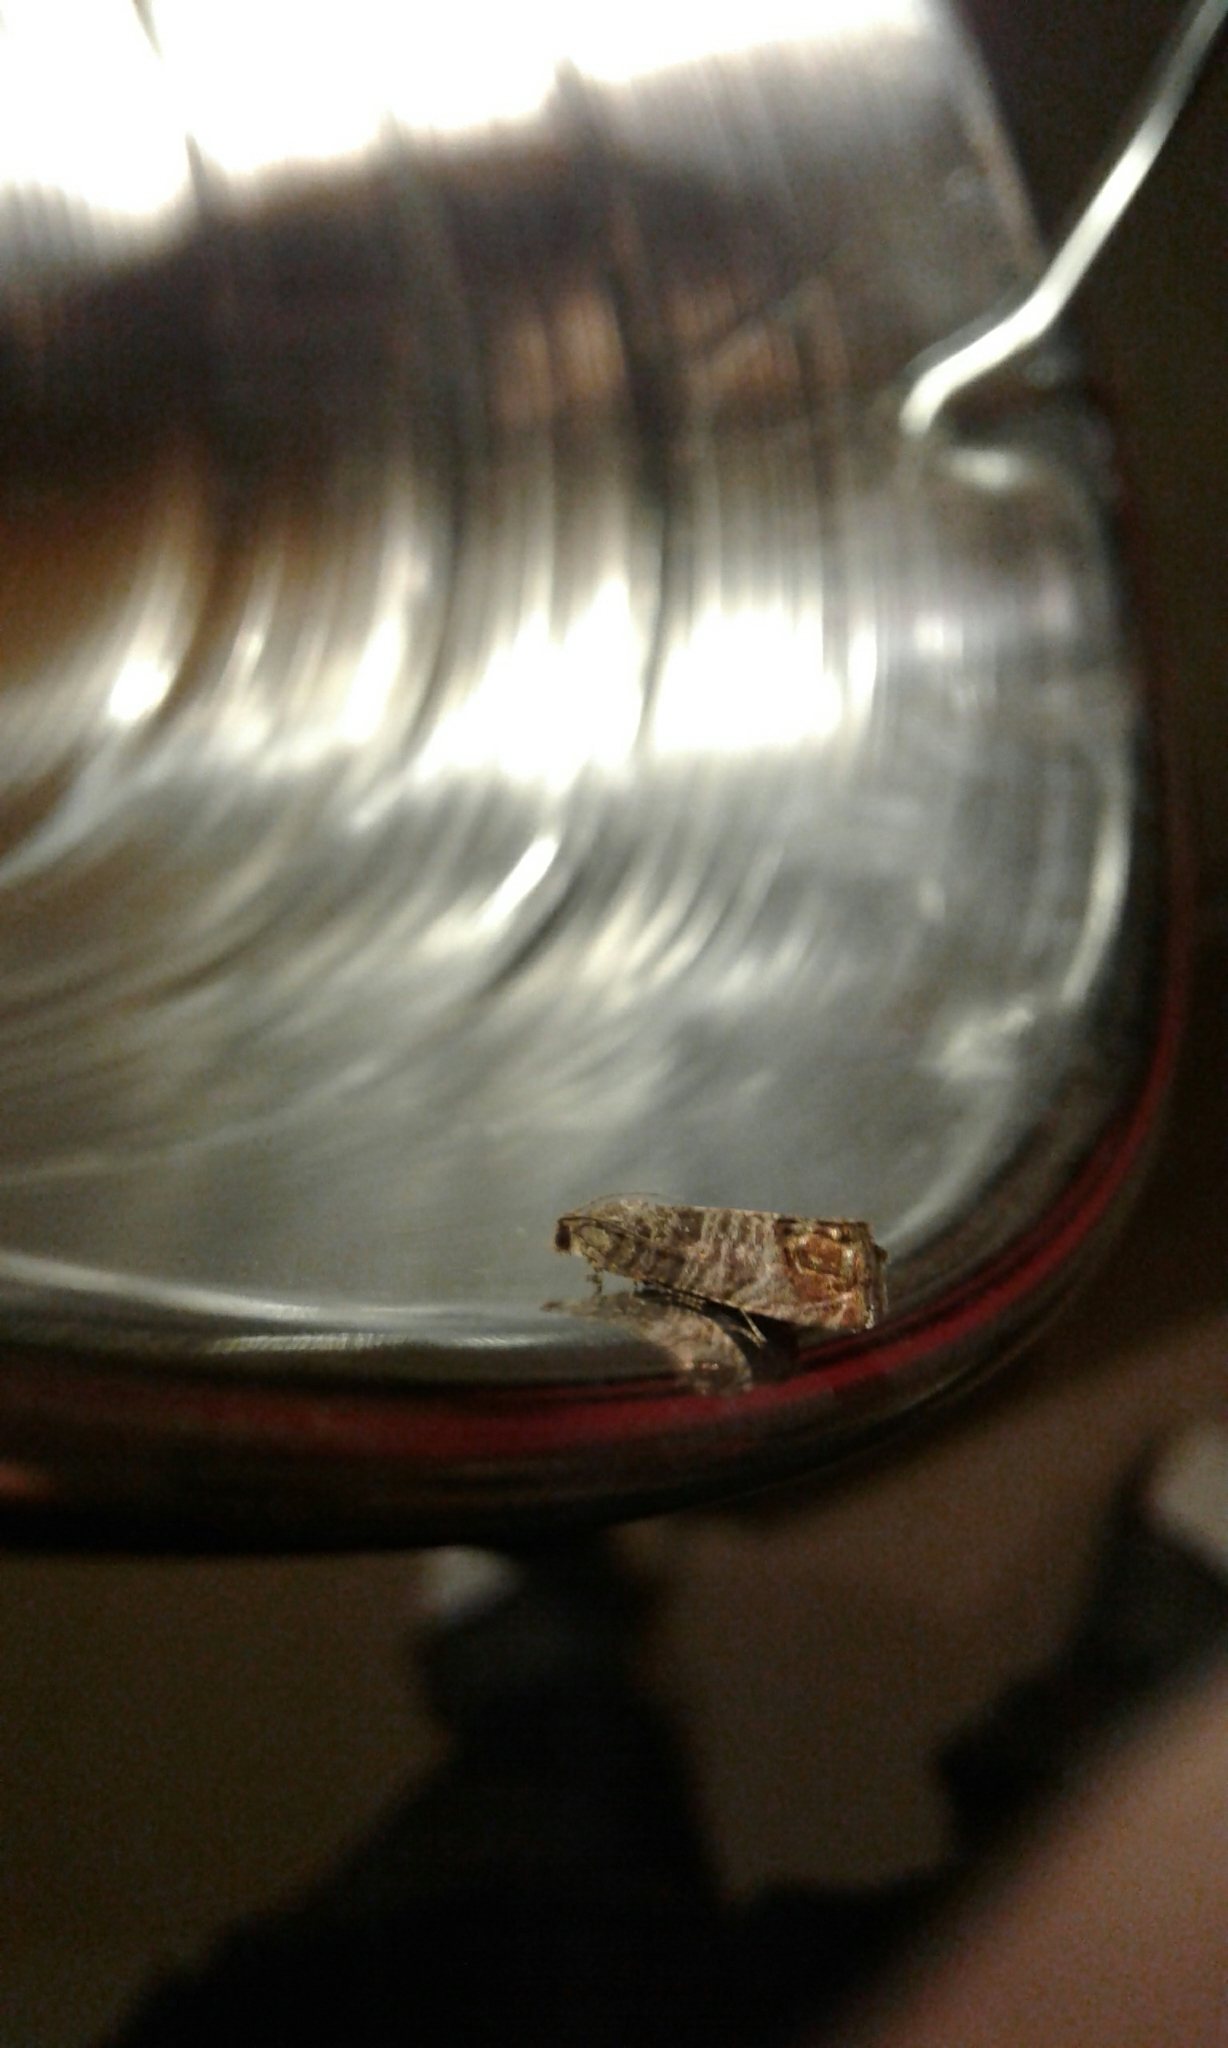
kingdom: Animalia
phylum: Arthropoda
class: Insecta
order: Lepidoptera
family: Tortricidae
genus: Cydia
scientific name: Cydia pomonella
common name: Codling moth
